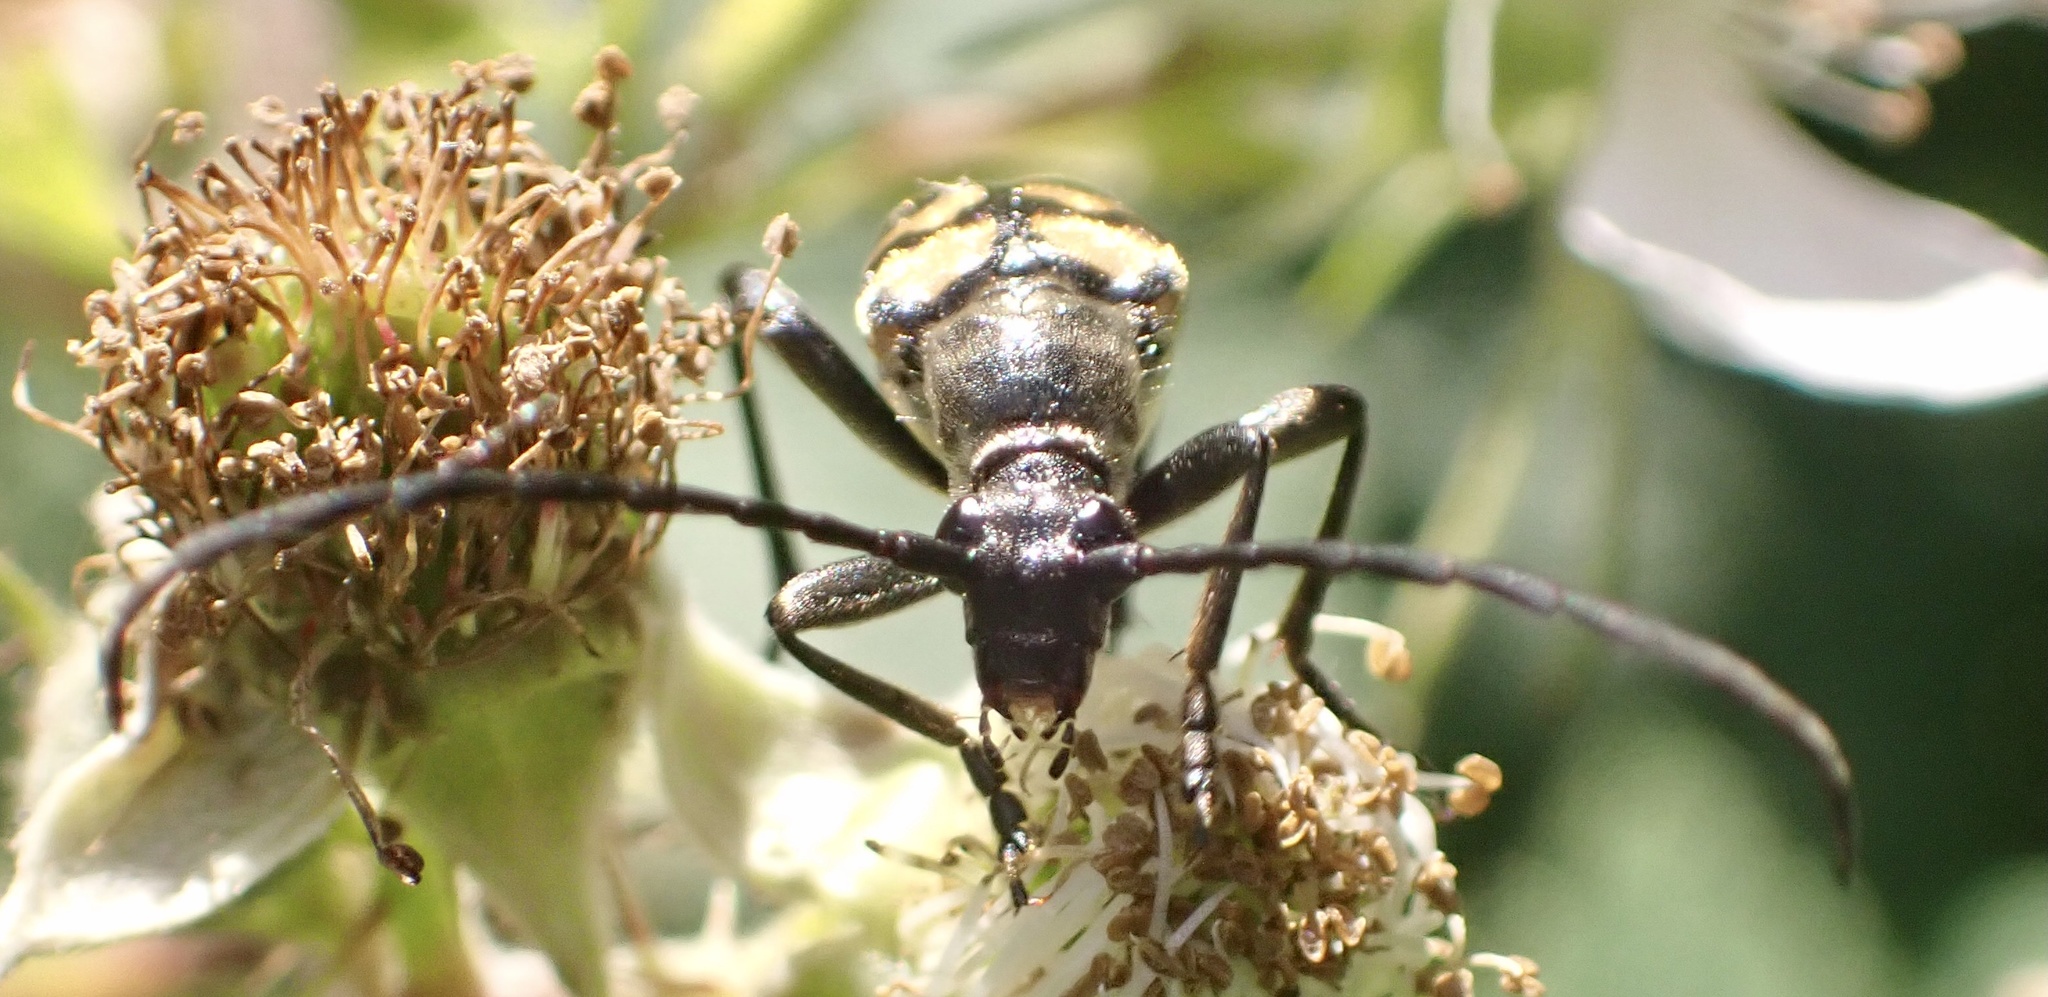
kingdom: Animalia
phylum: Arthropoda
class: Insecta
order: Coleoptera
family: Cerambycidae
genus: Leptura
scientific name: Leptura quadrifasciata
